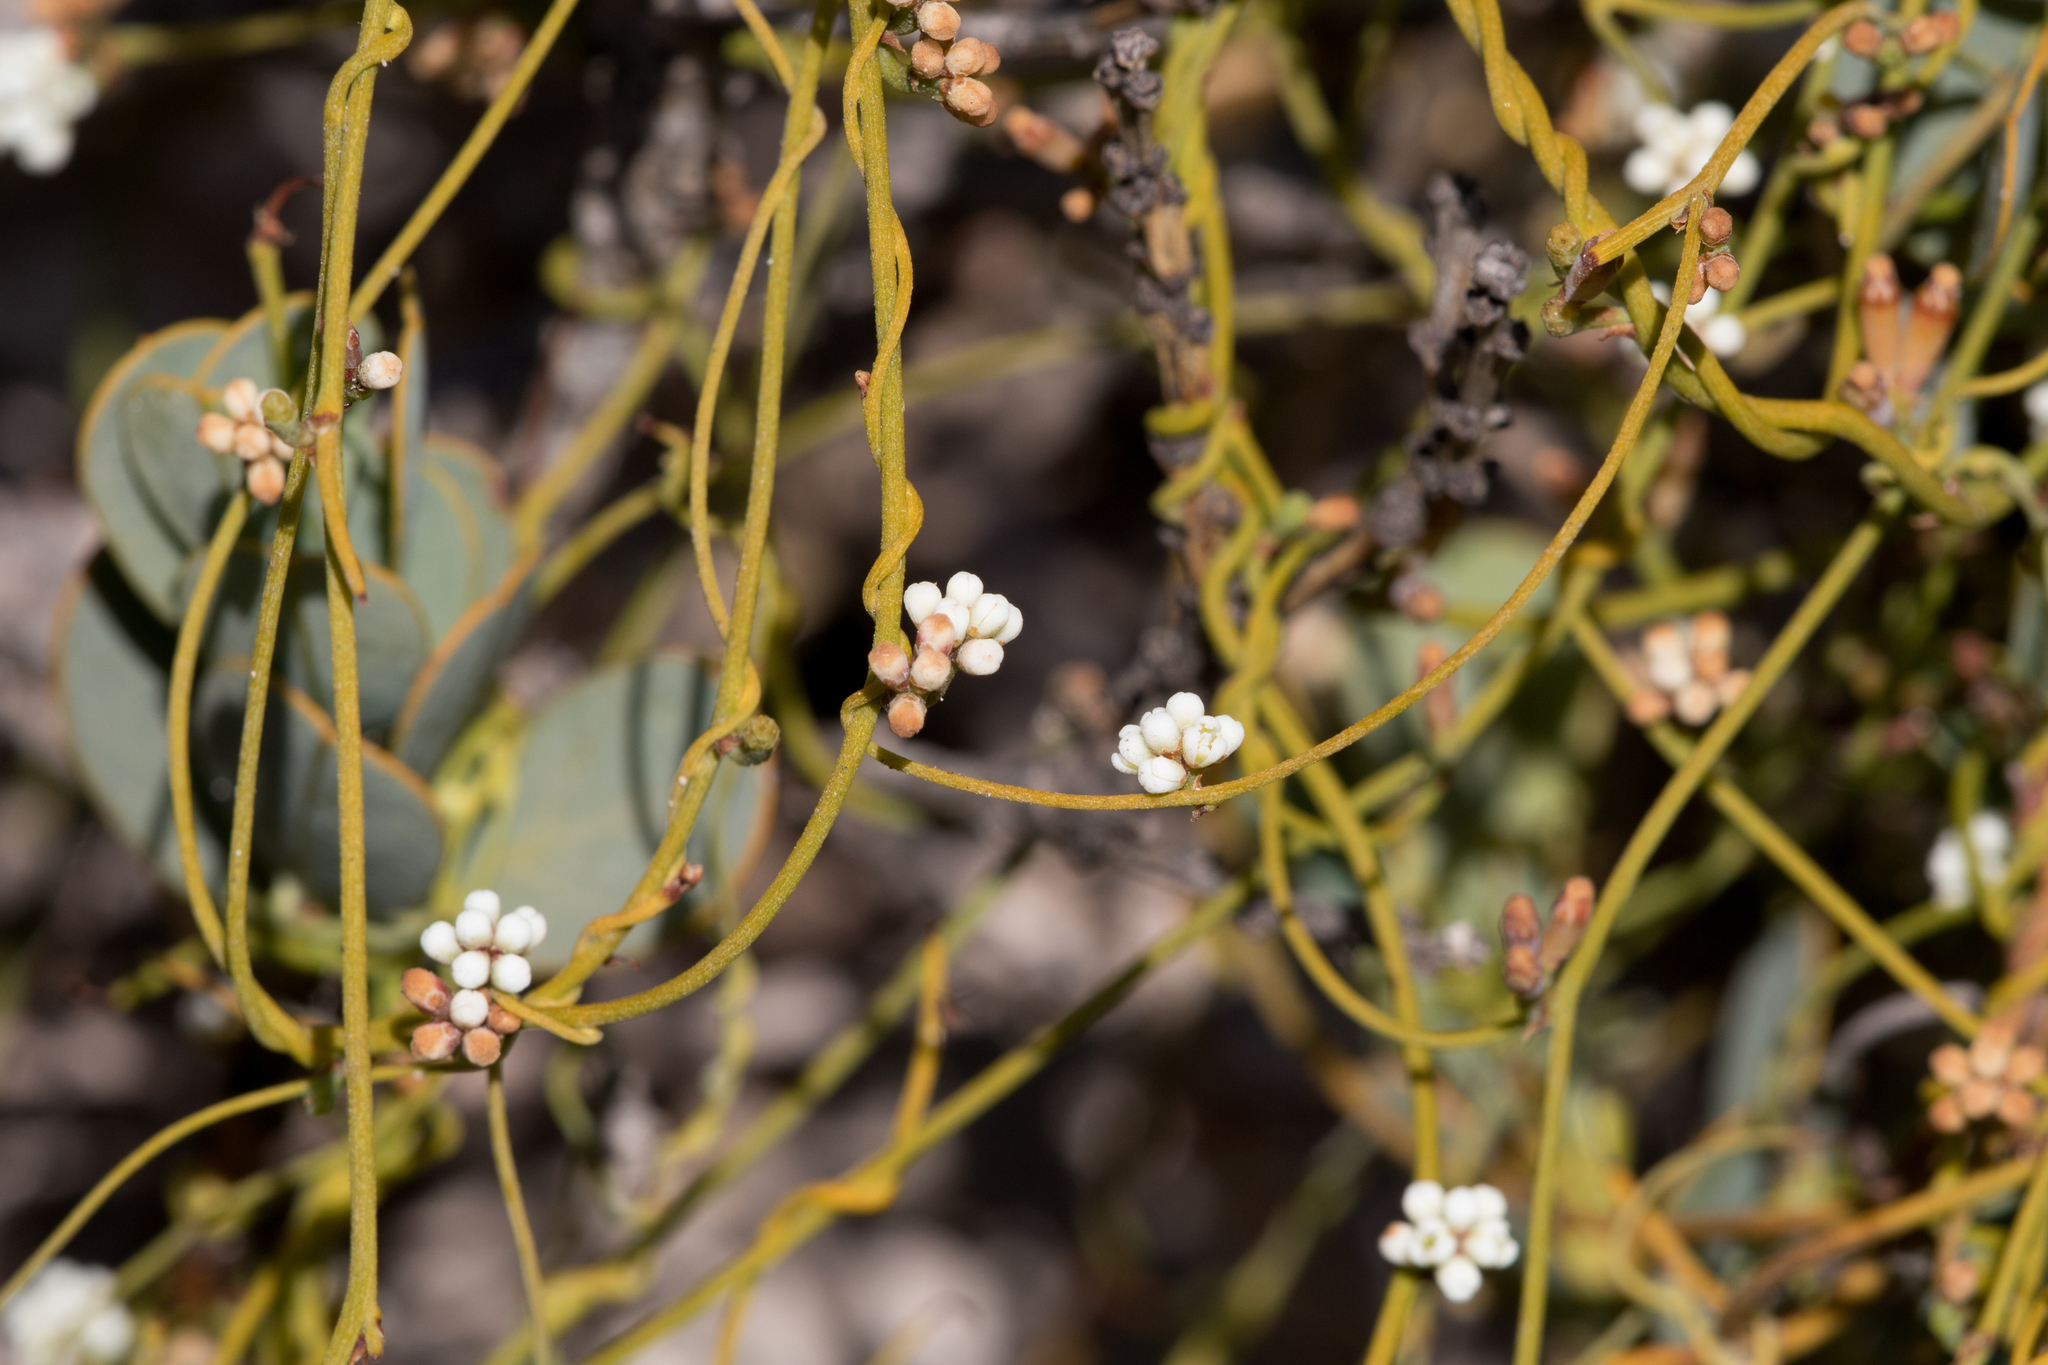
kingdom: Plantae
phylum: Tracheophyta
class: Magnoliopsida
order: Laurales
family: Lauraceae
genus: Cassytha
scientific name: Cassytha glabella
